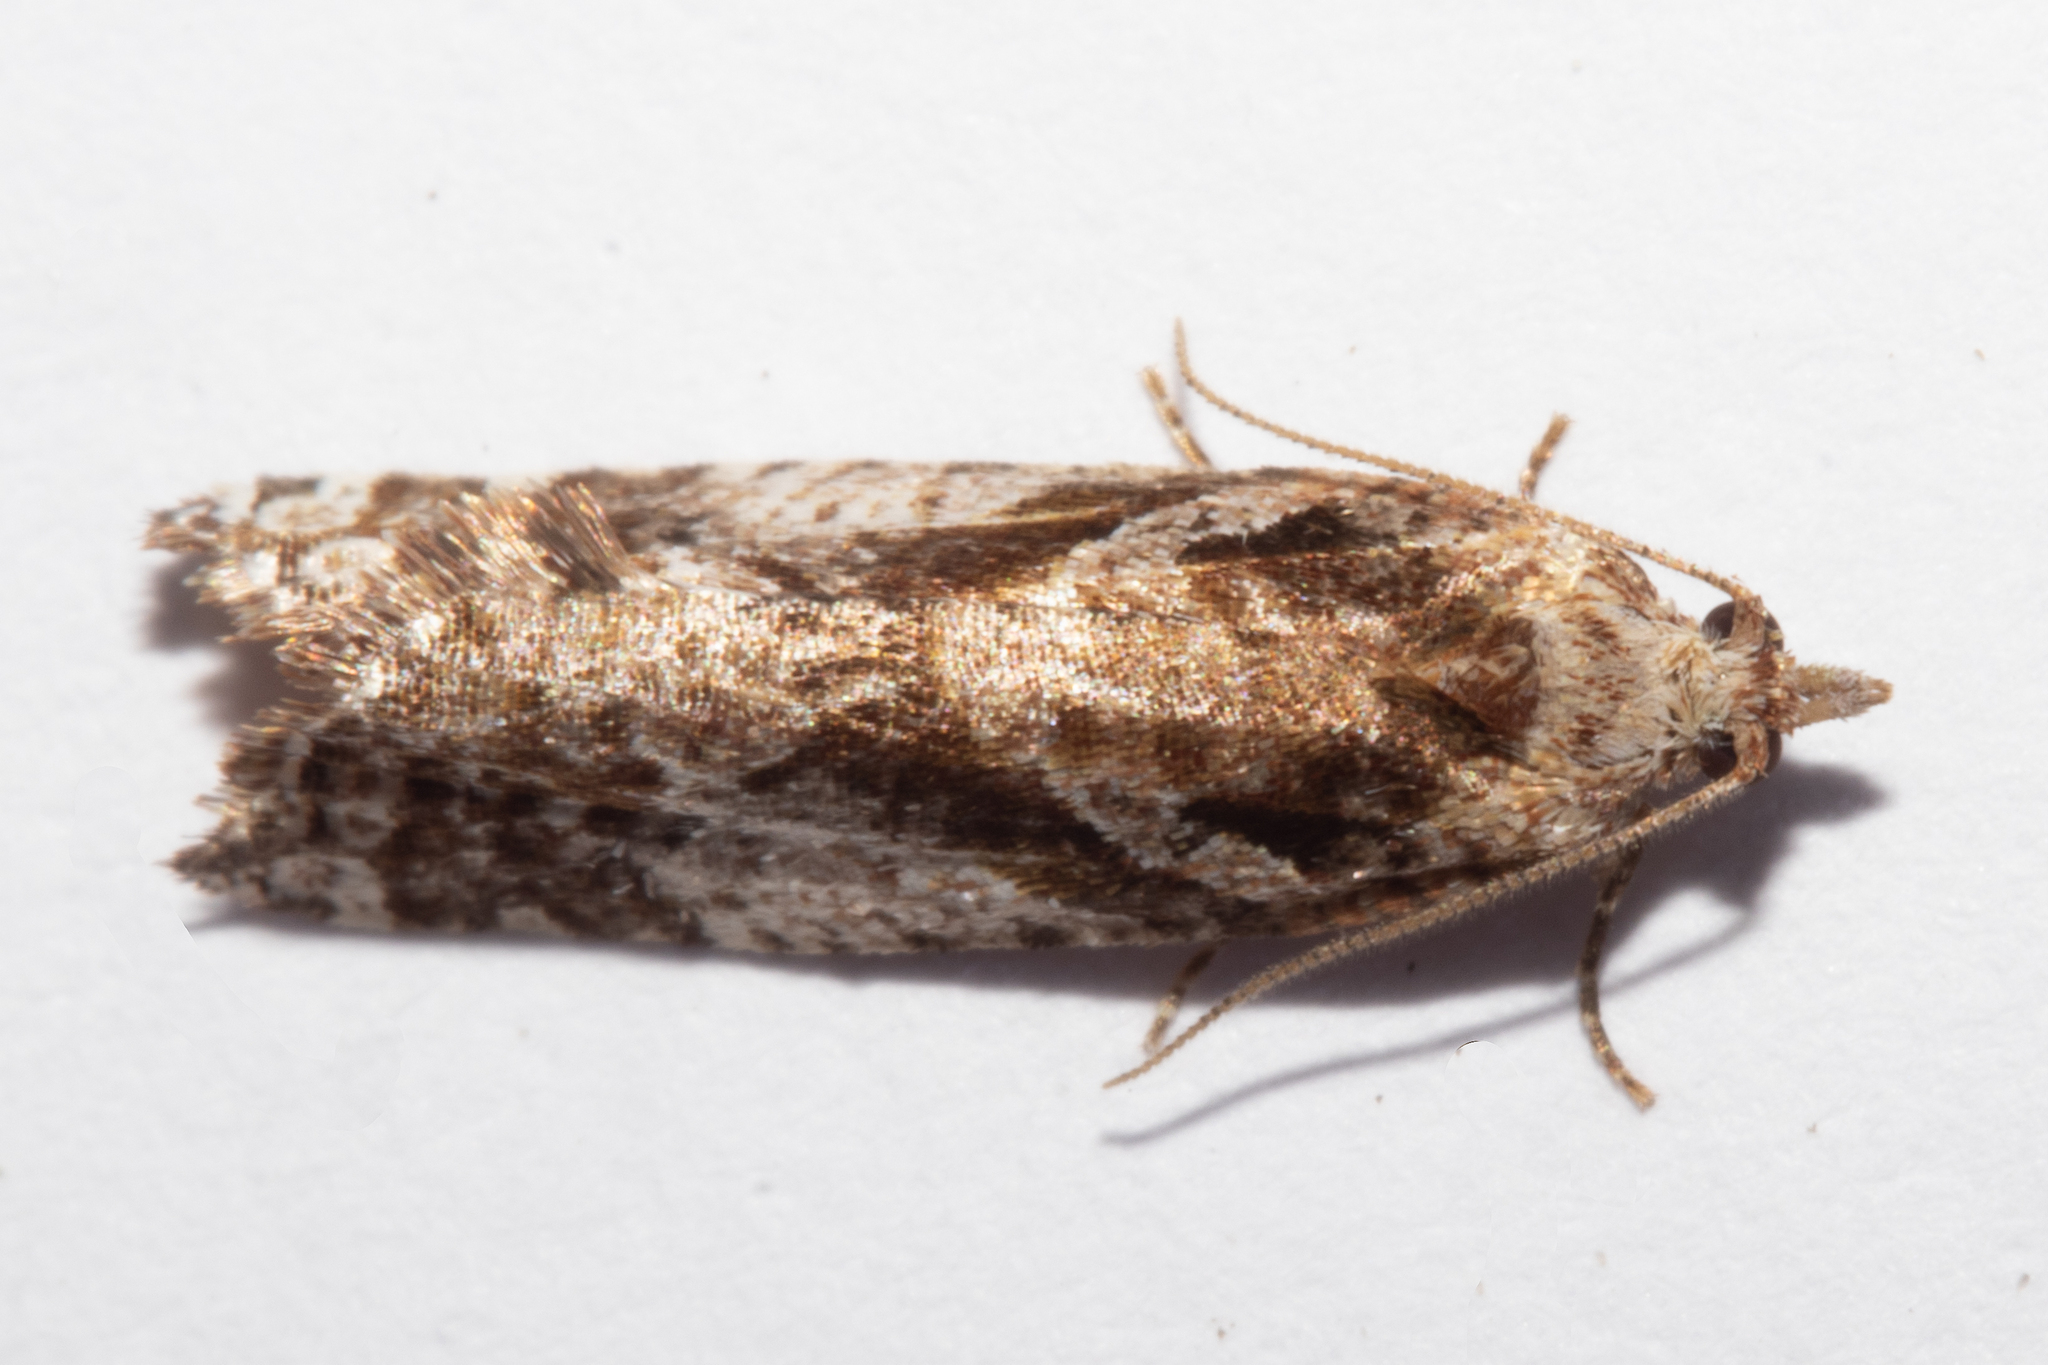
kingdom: Animalia
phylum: Arthropoda
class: Insecta
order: Lepidoptera
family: Tortricidae
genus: Pyrgotis
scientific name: Pyrgotis plagiatana
